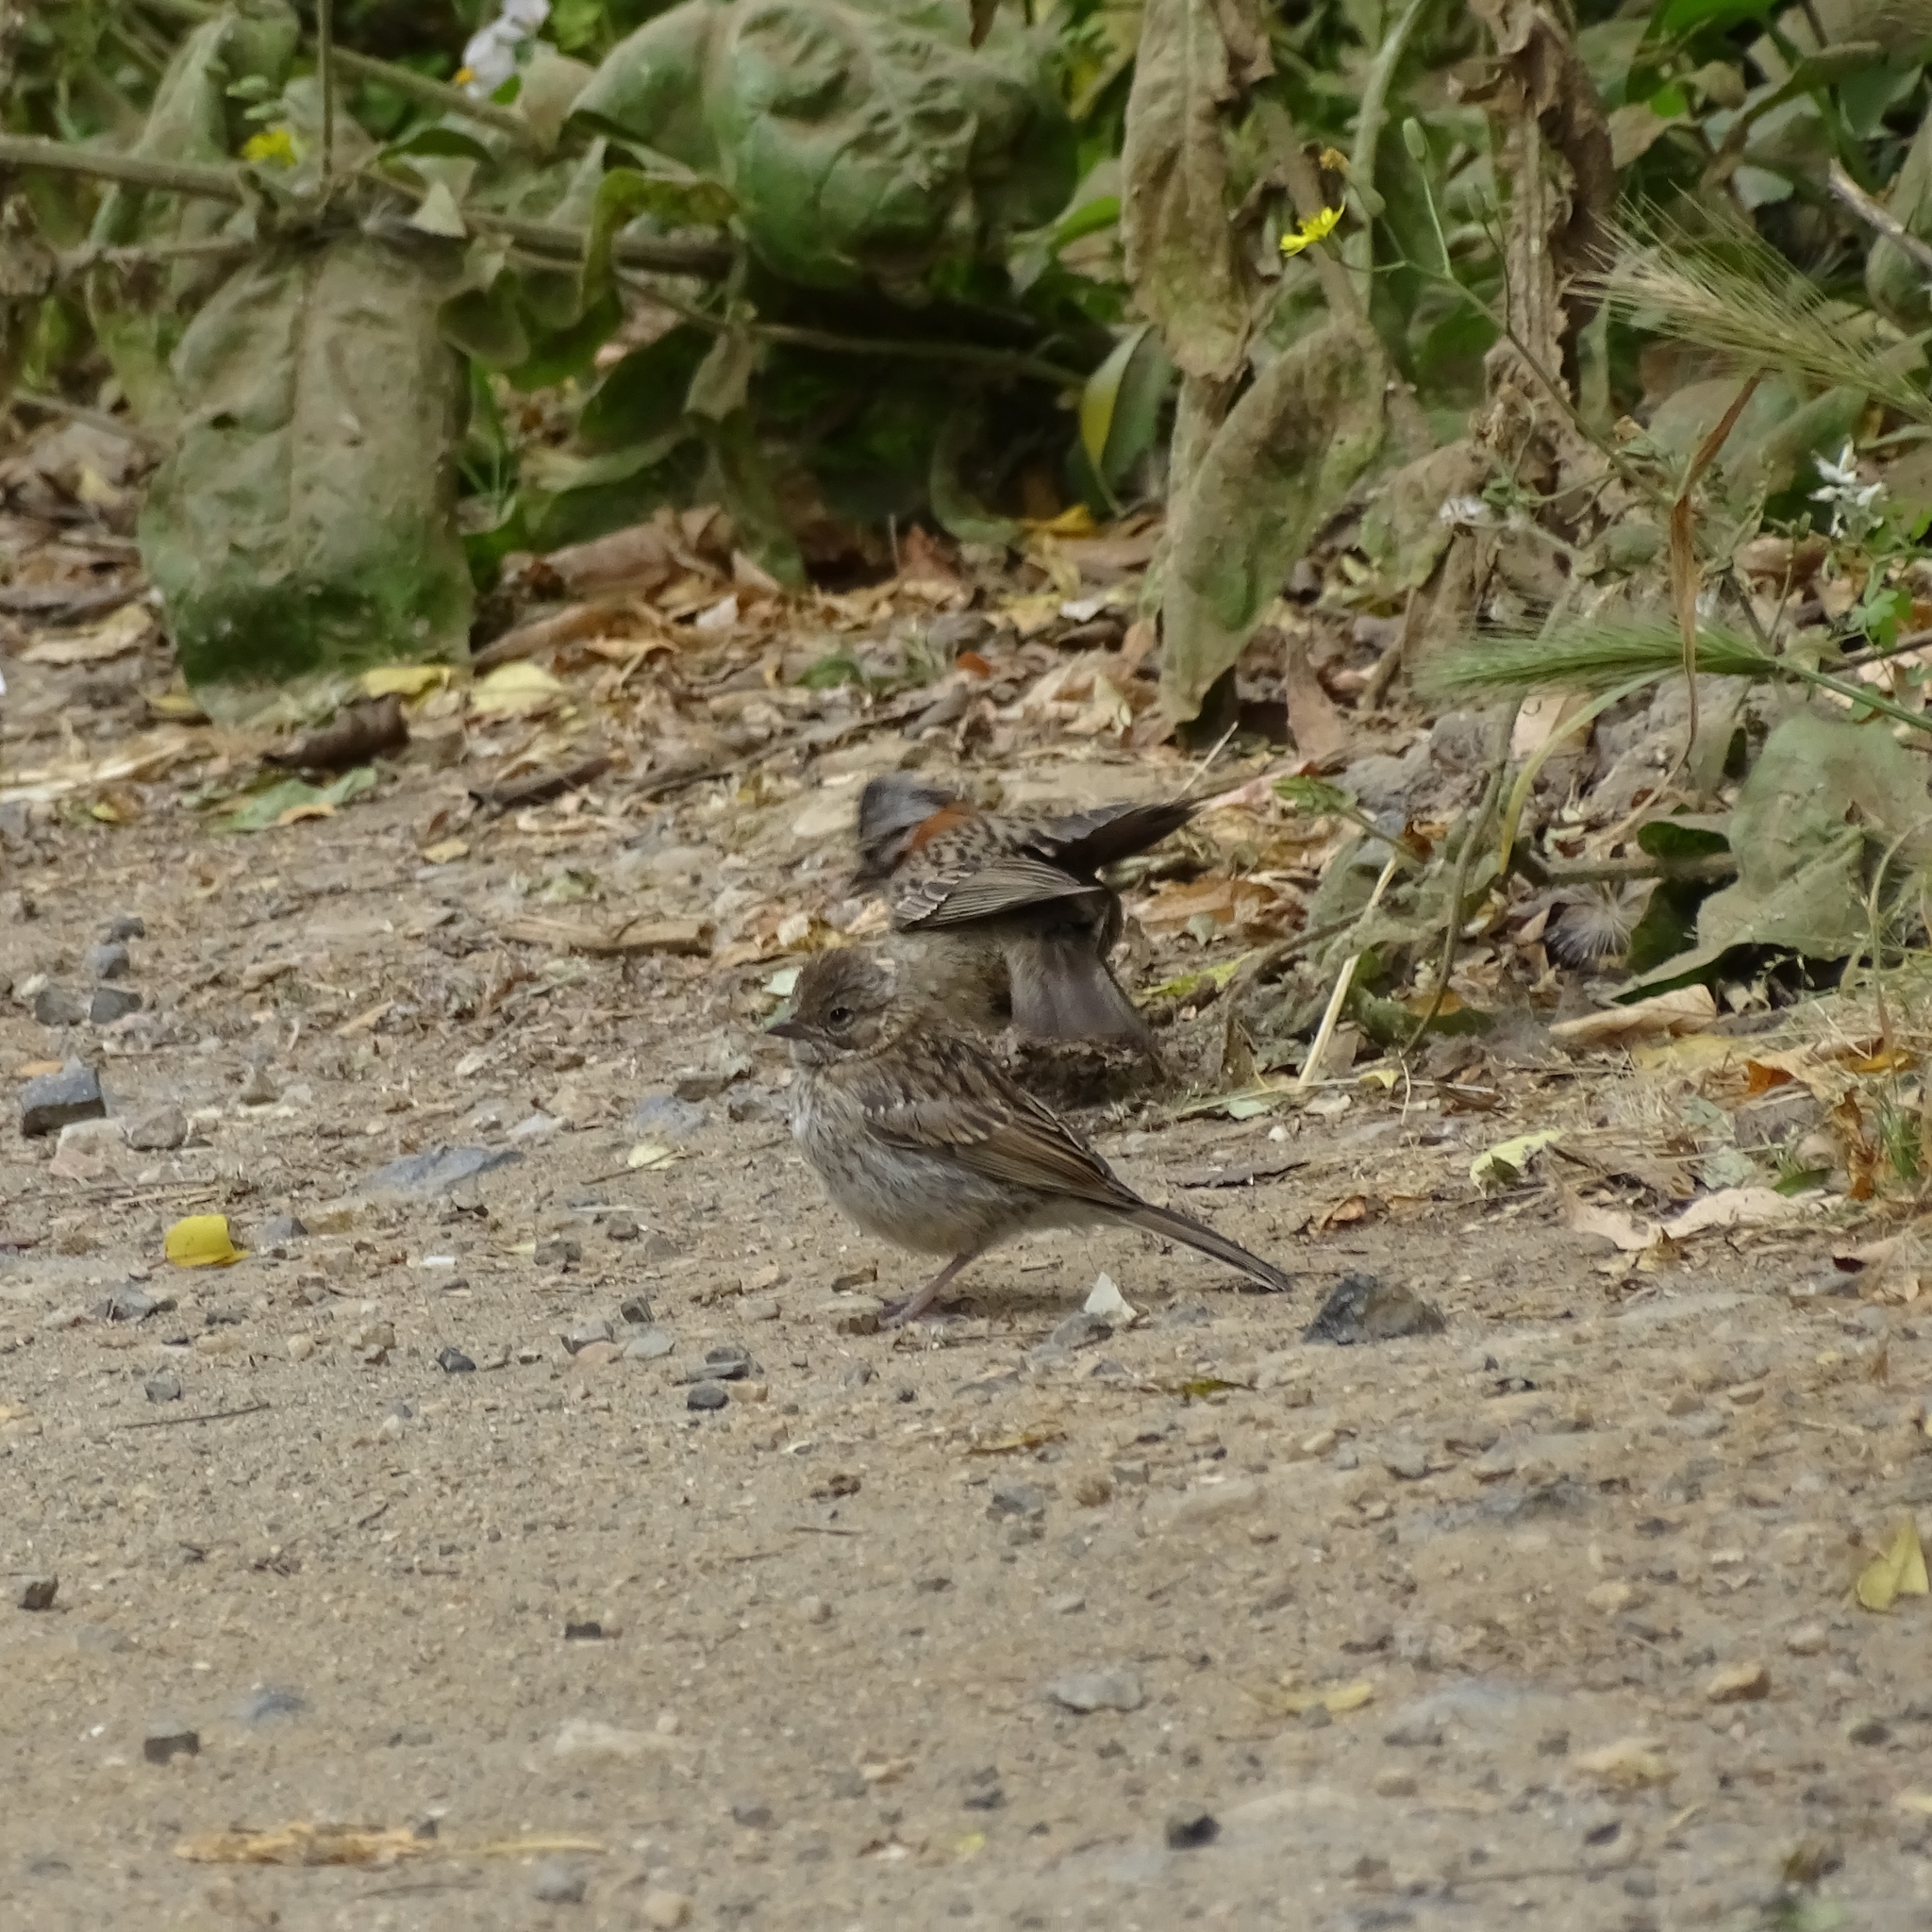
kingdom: Animalia
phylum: Chordata
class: Aves
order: Passeriformes
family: Passerellidae
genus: Zonotrichia
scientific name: Zonotrichia capensis
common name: Rufous-collared sparrow
